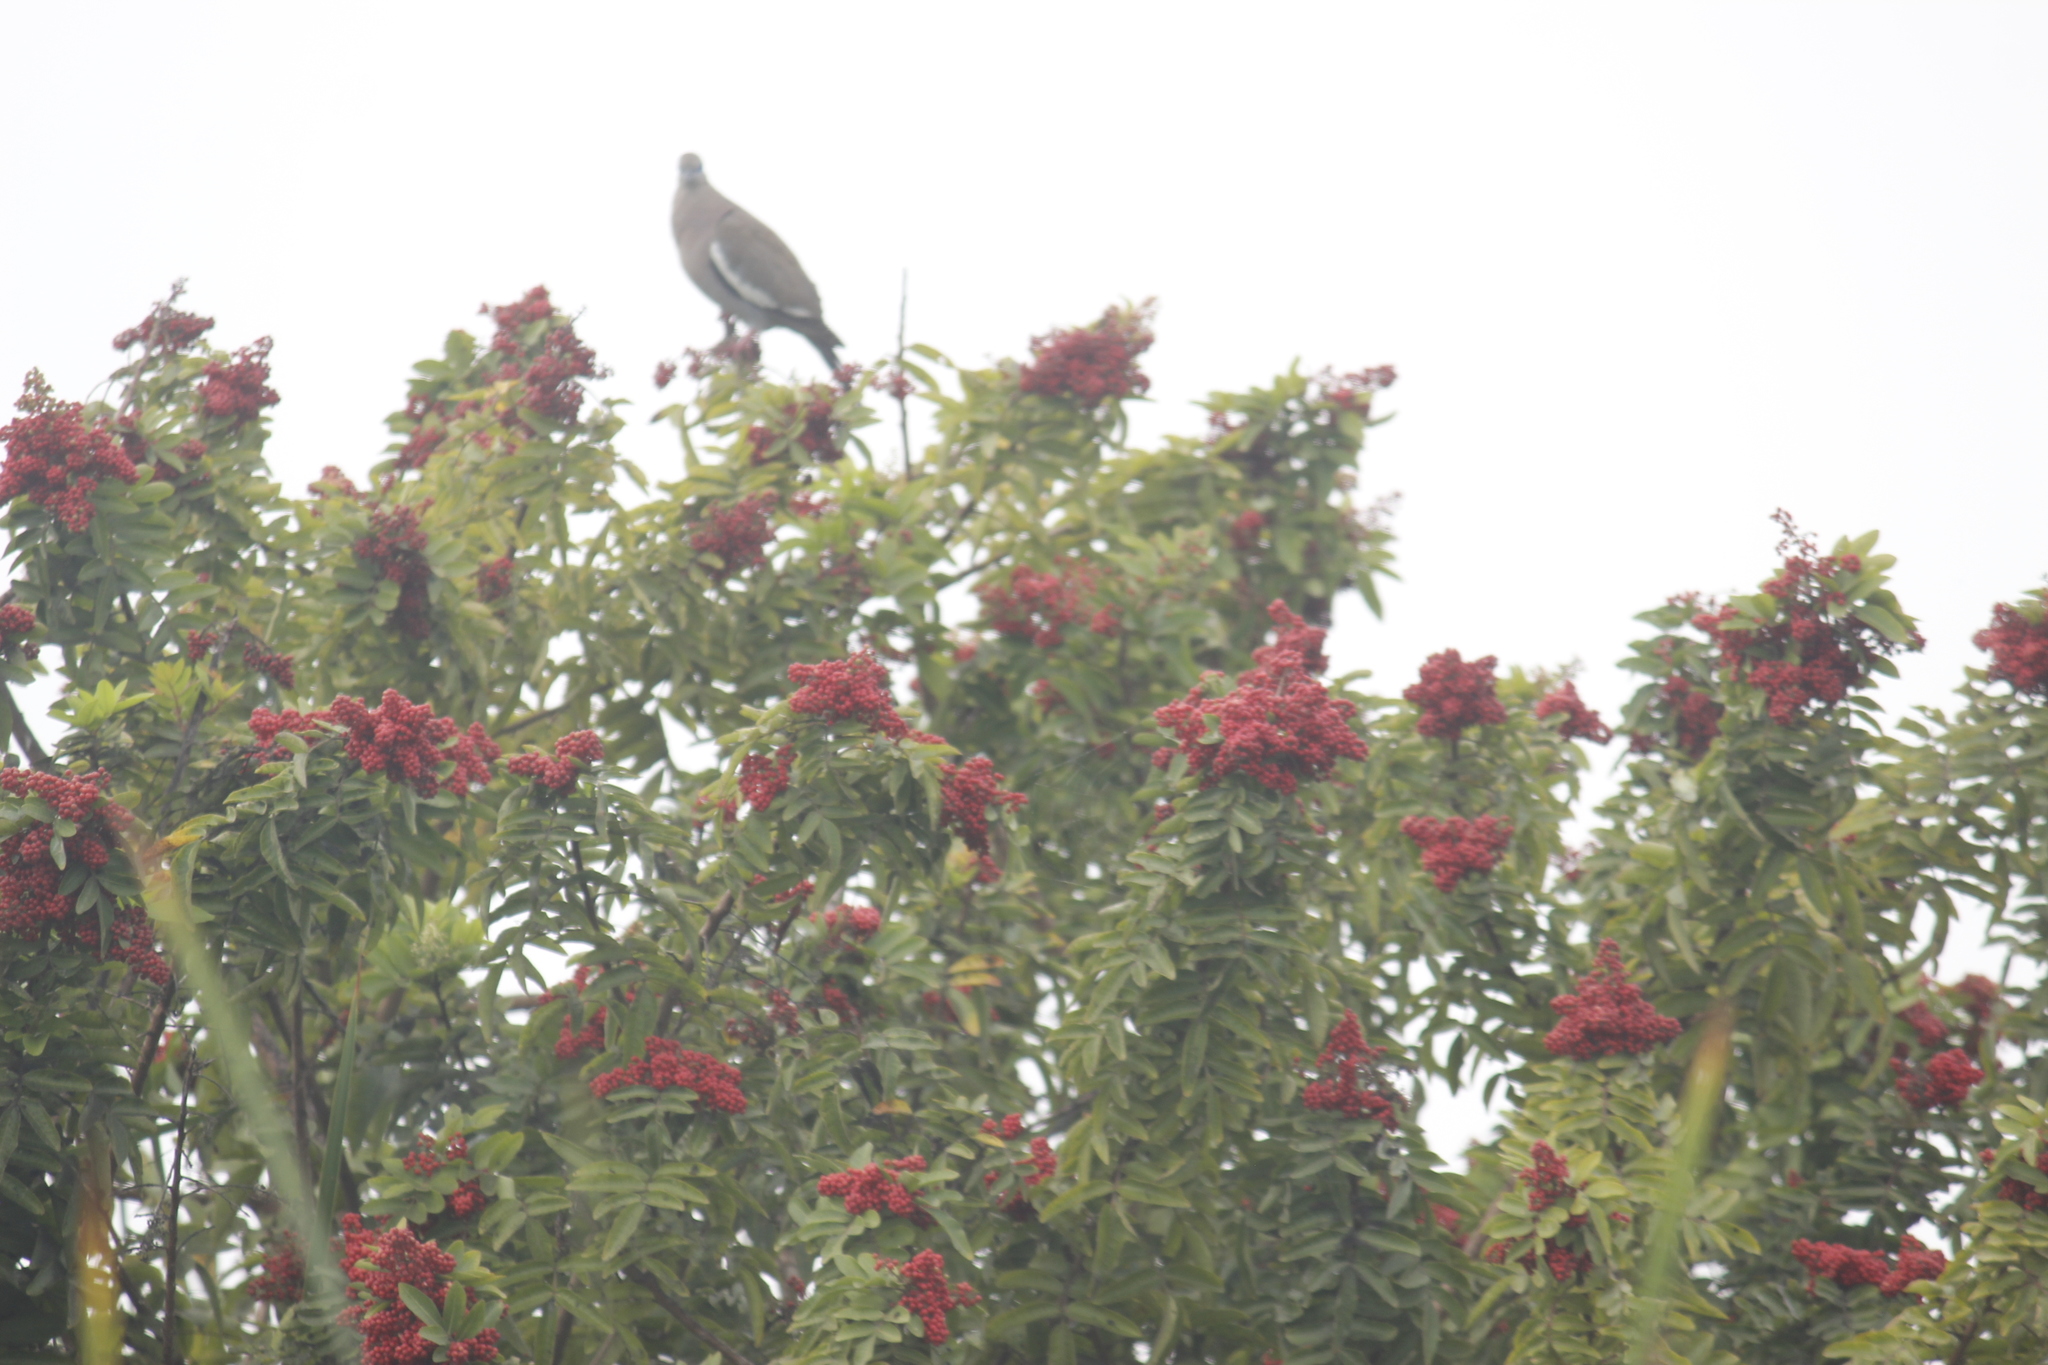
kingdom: Plantae
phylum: Tracheophyta
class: Magnoliopsida
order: Sapindales
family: Anacardiaceae
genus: Schinus
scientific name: Schinus terebinthifolia
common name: Brazilian peppertree
